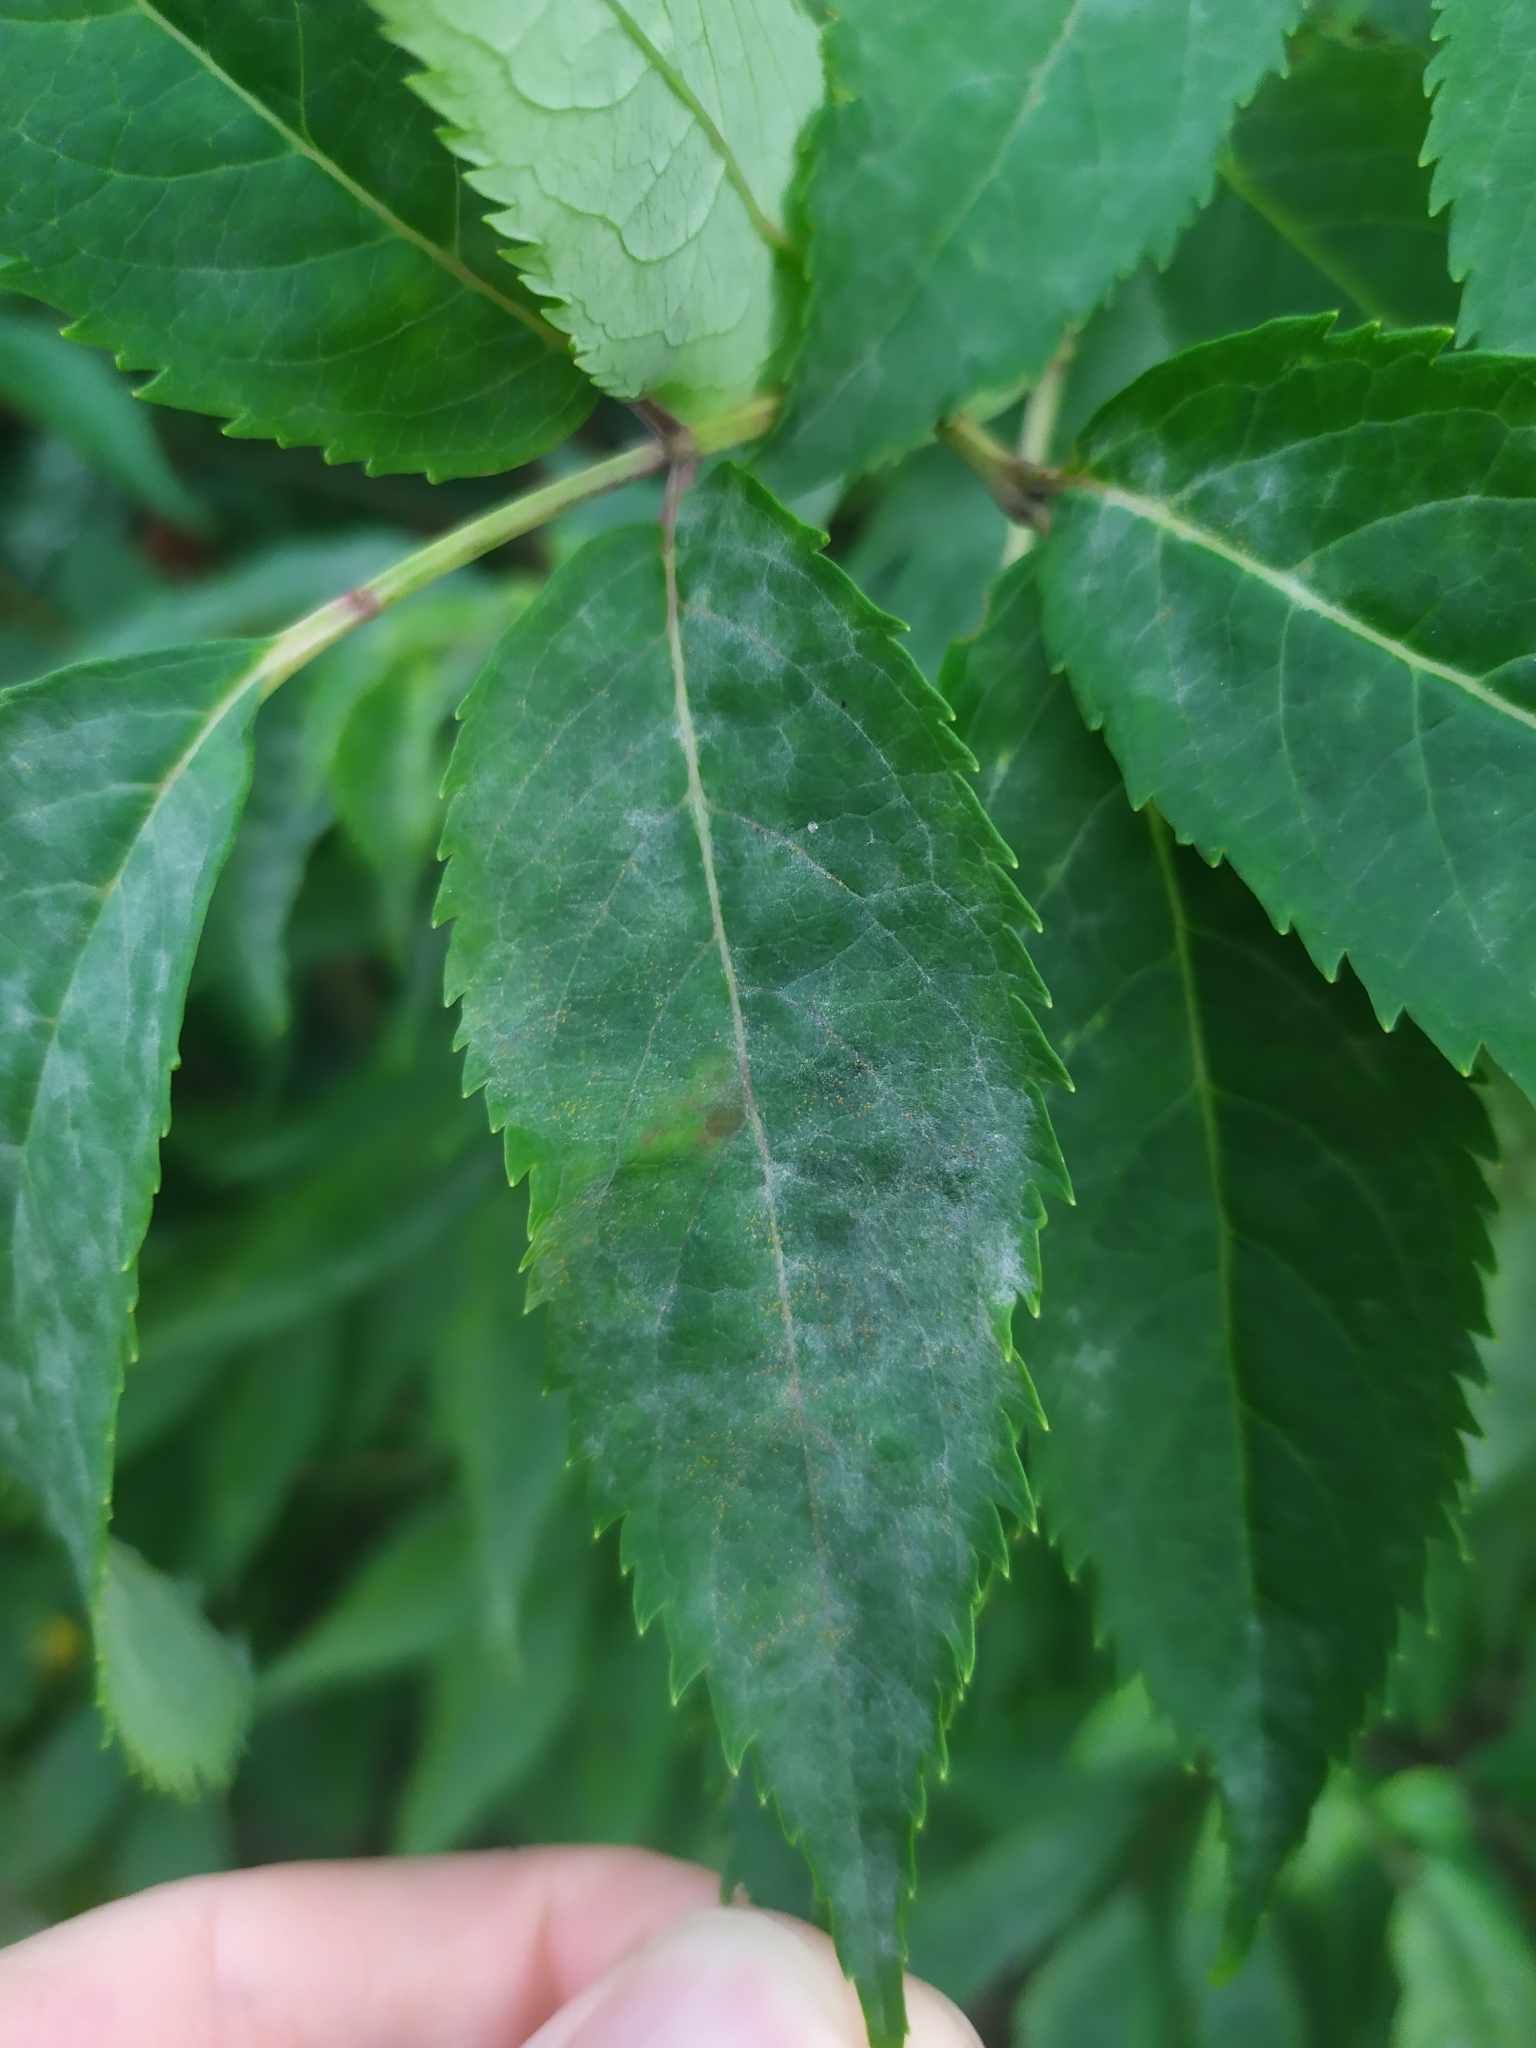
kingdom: Fungi
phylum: Ascomycota
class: Leotiomycetes
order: Helotiales
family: Erysiphaceae
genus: Erysiphe
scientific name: Erysiphe sambuci
